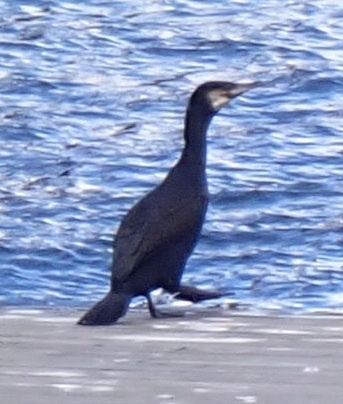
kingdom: Animalia
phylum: Chordata
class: Aves
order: Suliformes
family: Phalacrocoracidae
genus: Phalacrocorax
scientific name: Phalacrocorax carbo
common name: Great cormorant
